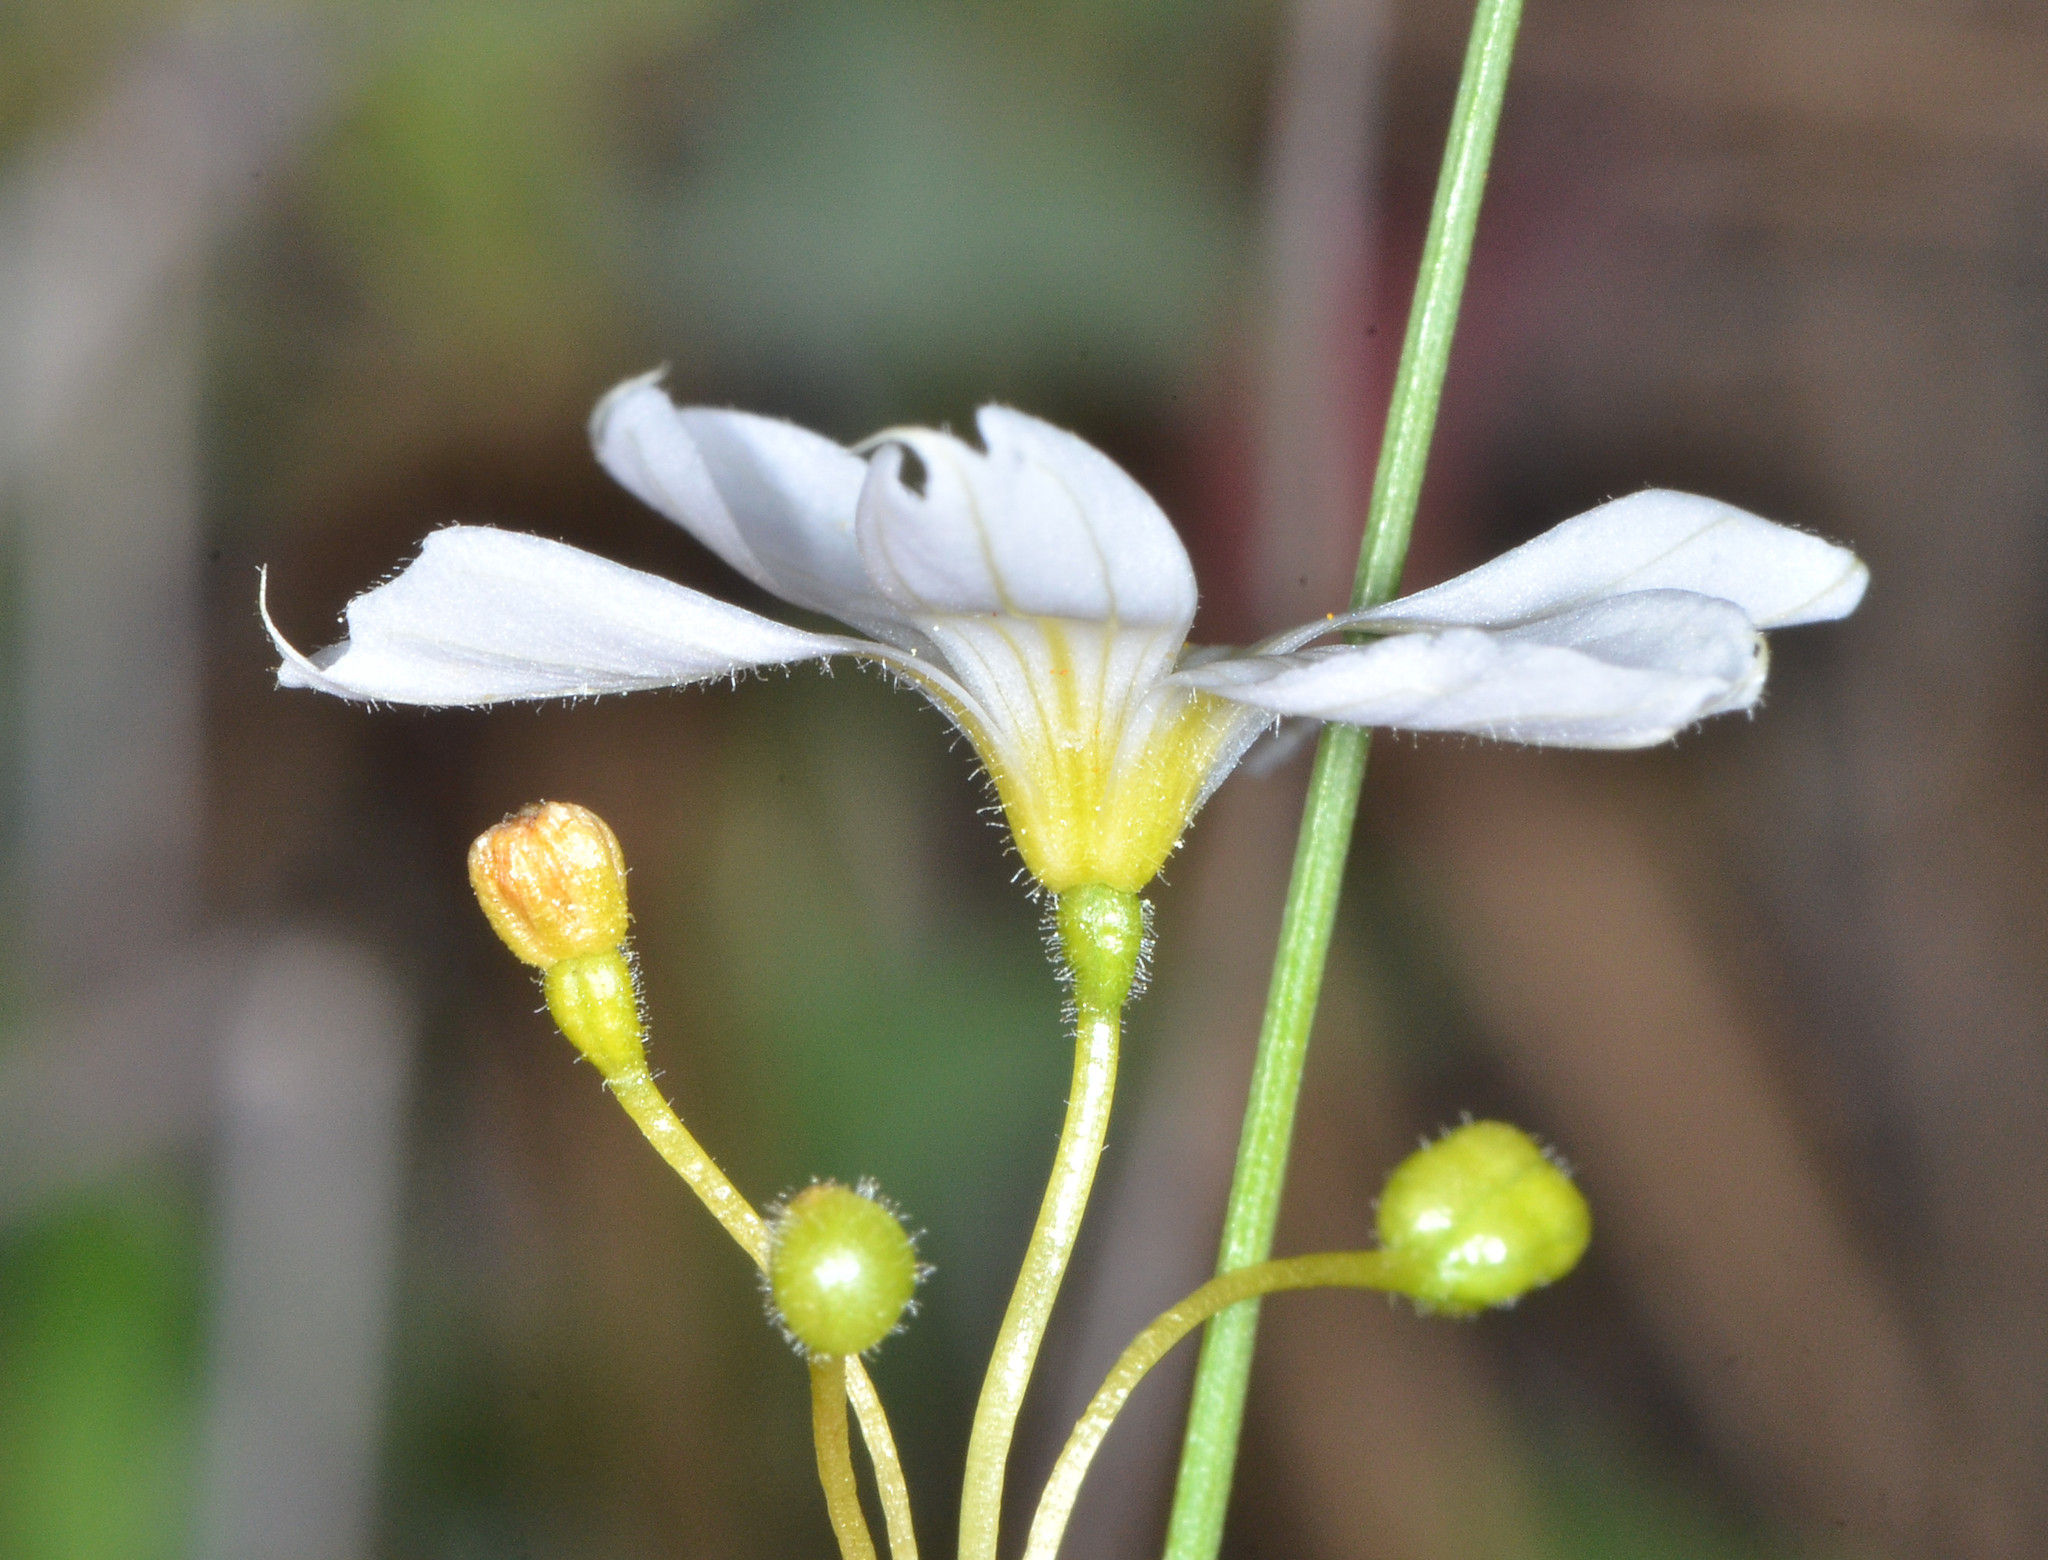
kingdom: Plantae
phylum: Tracheophyta
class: Liliopsida
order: Asparagales
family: Iridaceae
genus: Sisyrinchium
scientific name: Sisyrinchium bellum
